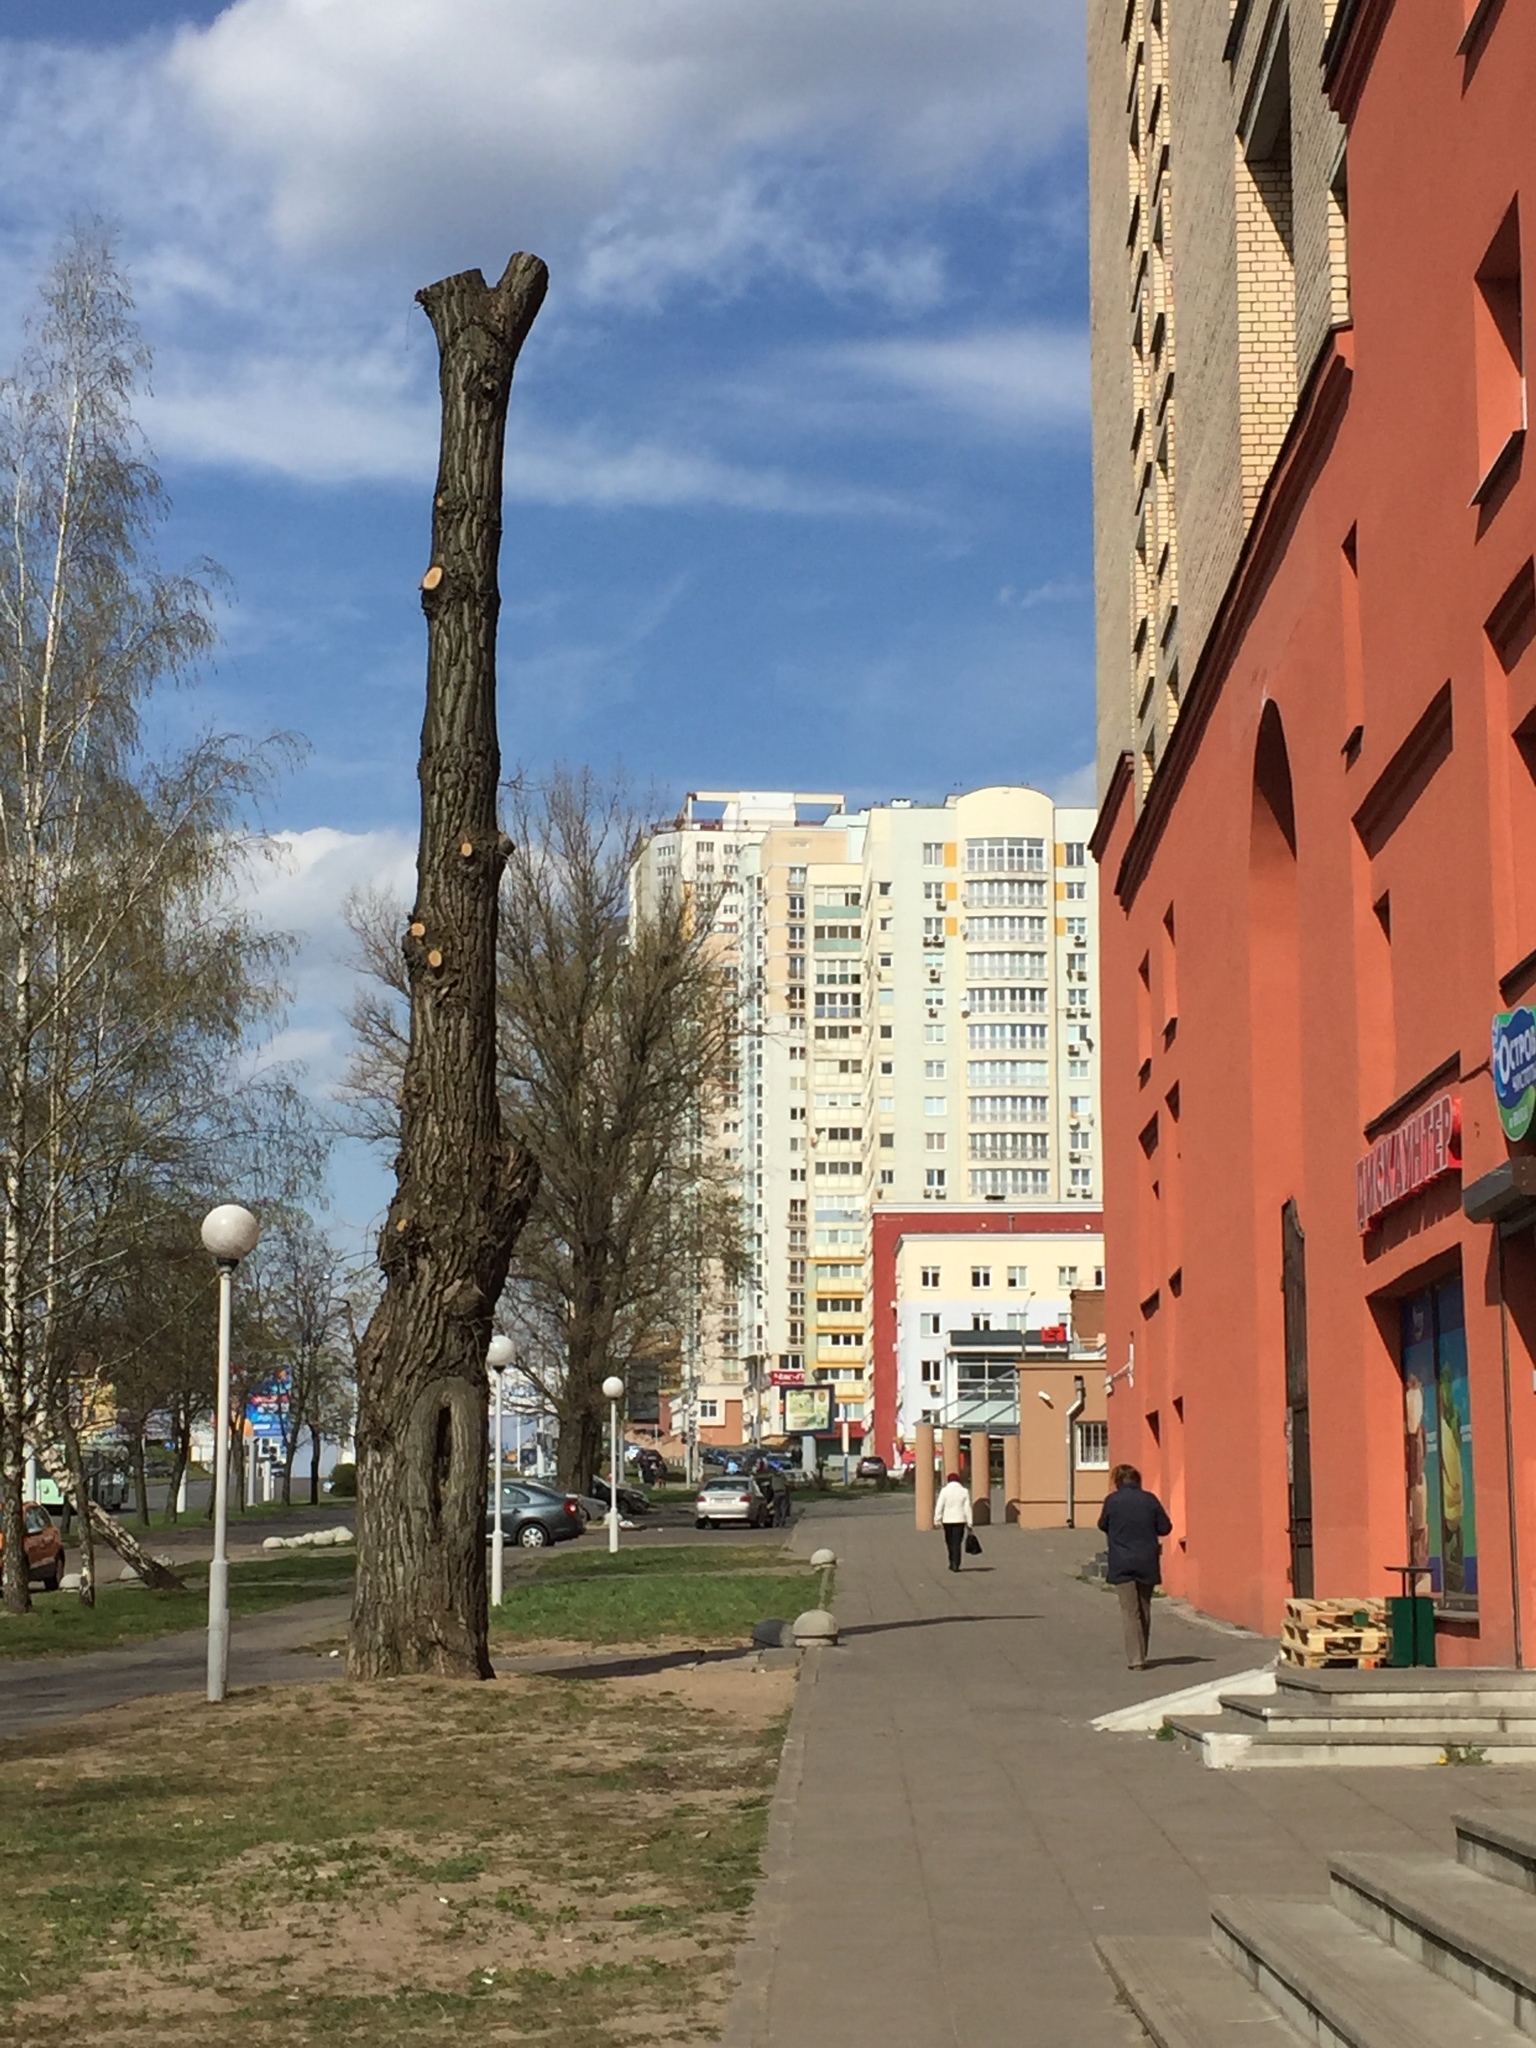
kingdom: Plantae
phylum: Tracheophyta
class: Magnoliopsida
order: Malpighiales
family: Salicaceae
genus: Populus
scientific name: Populus nigra
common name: Black poplar
